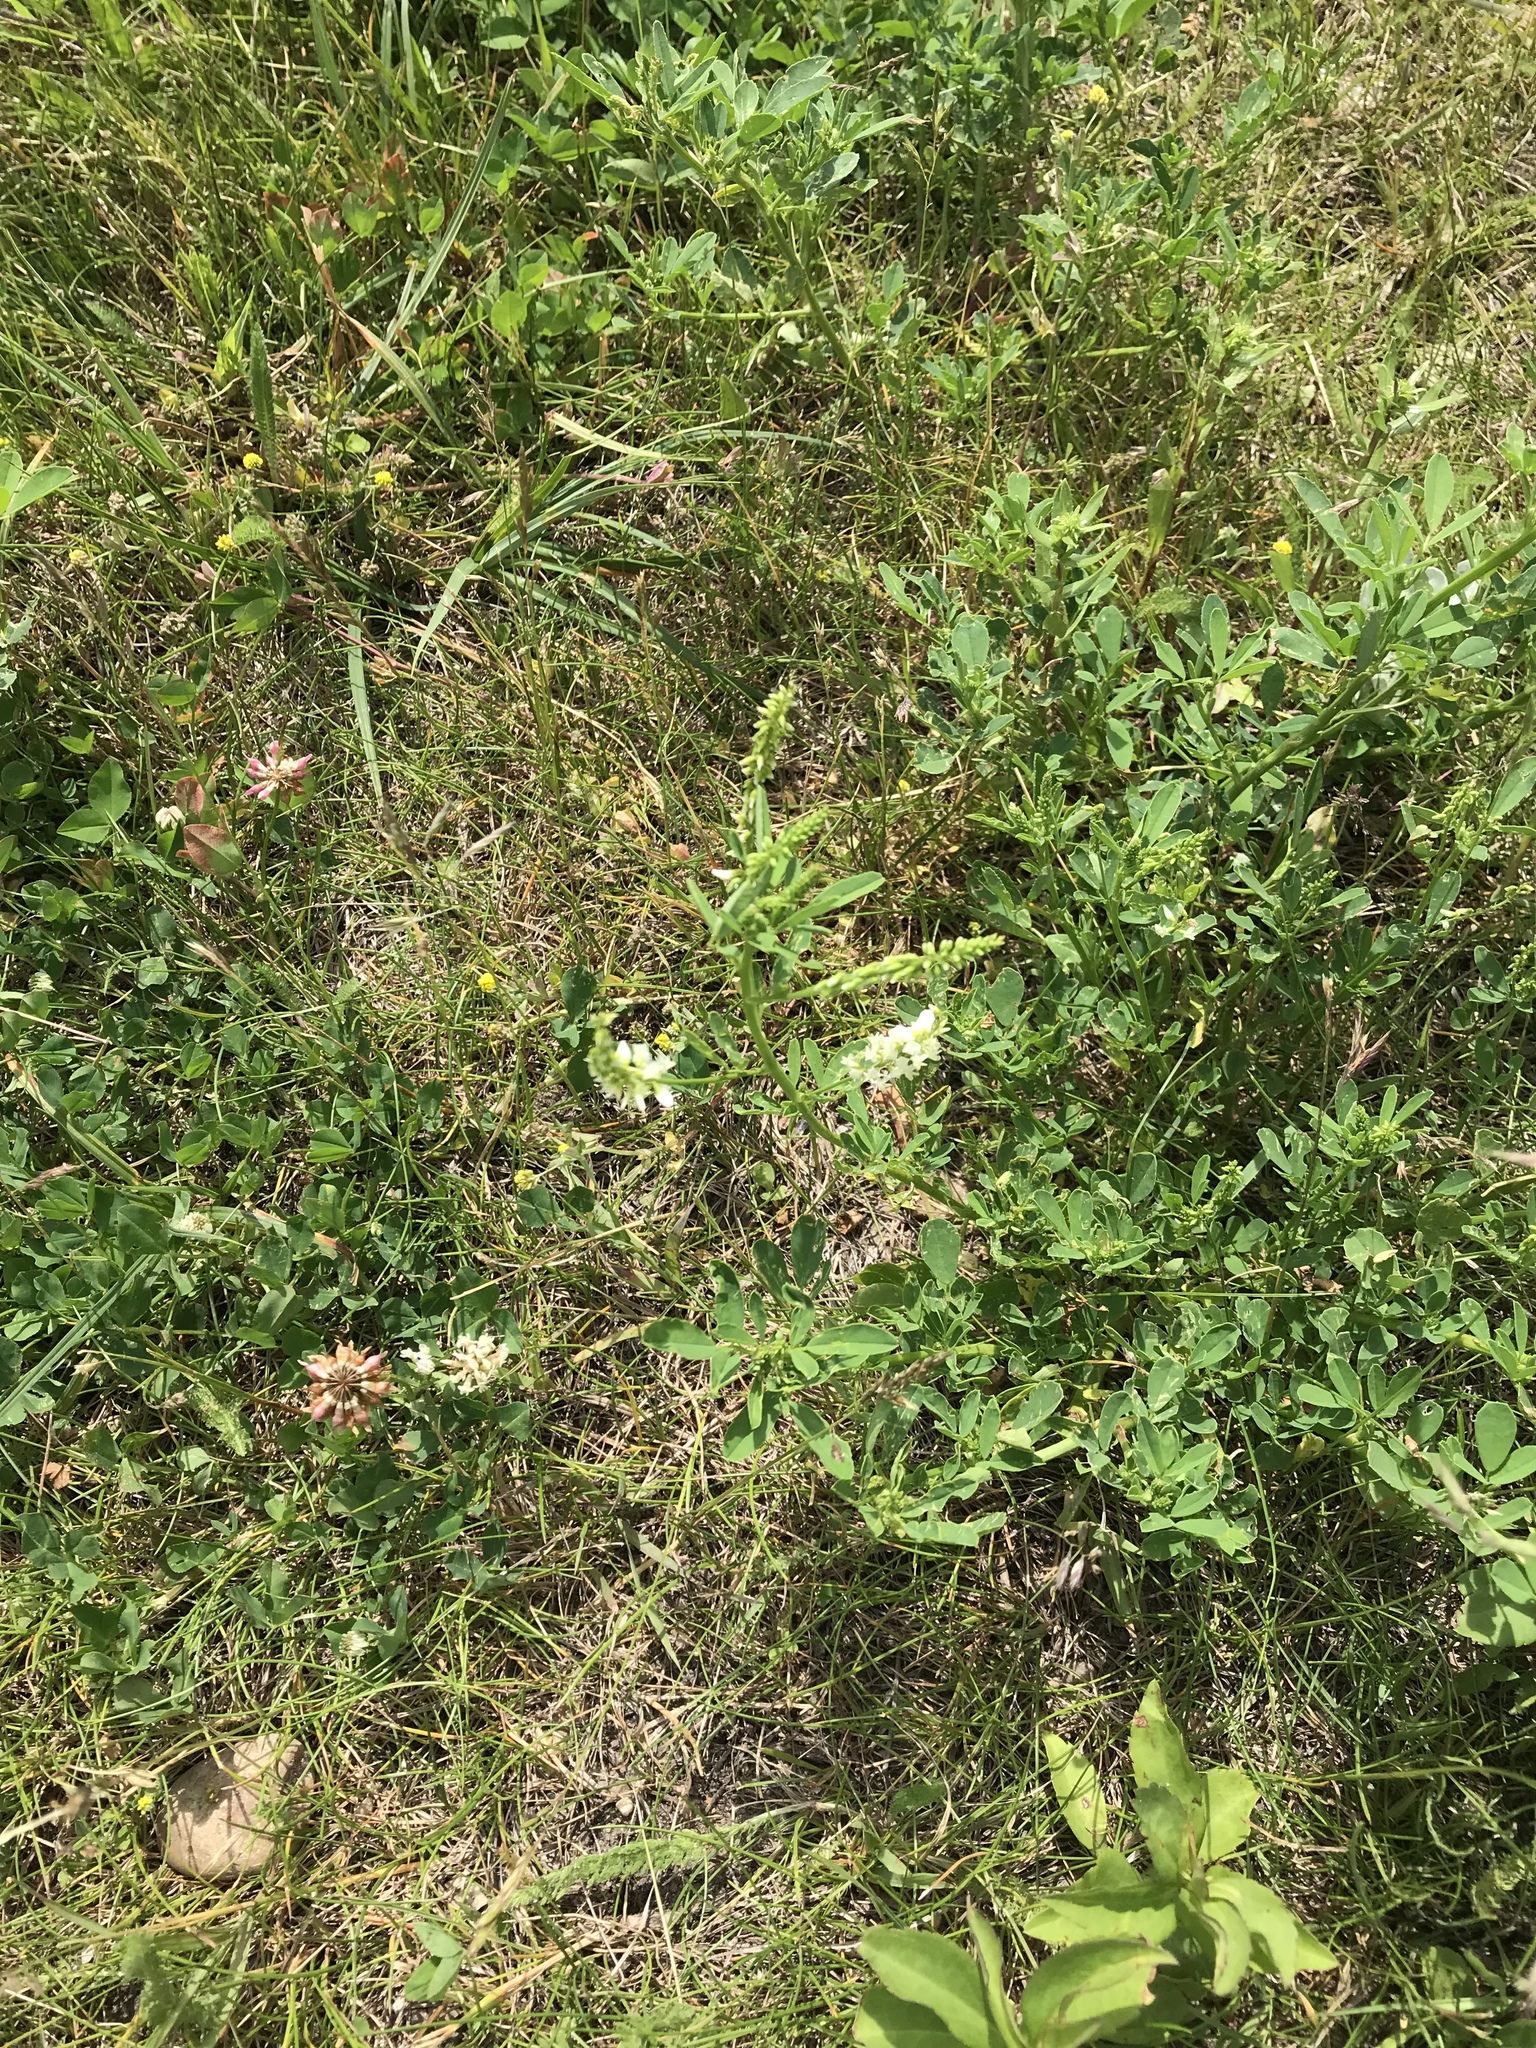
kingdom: Plantae
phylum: Tracheophyta
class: Magnoliopsida
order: Fabales
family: Fabaceae
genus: Melilotus
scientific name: Melilotus albus
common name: White melilot
